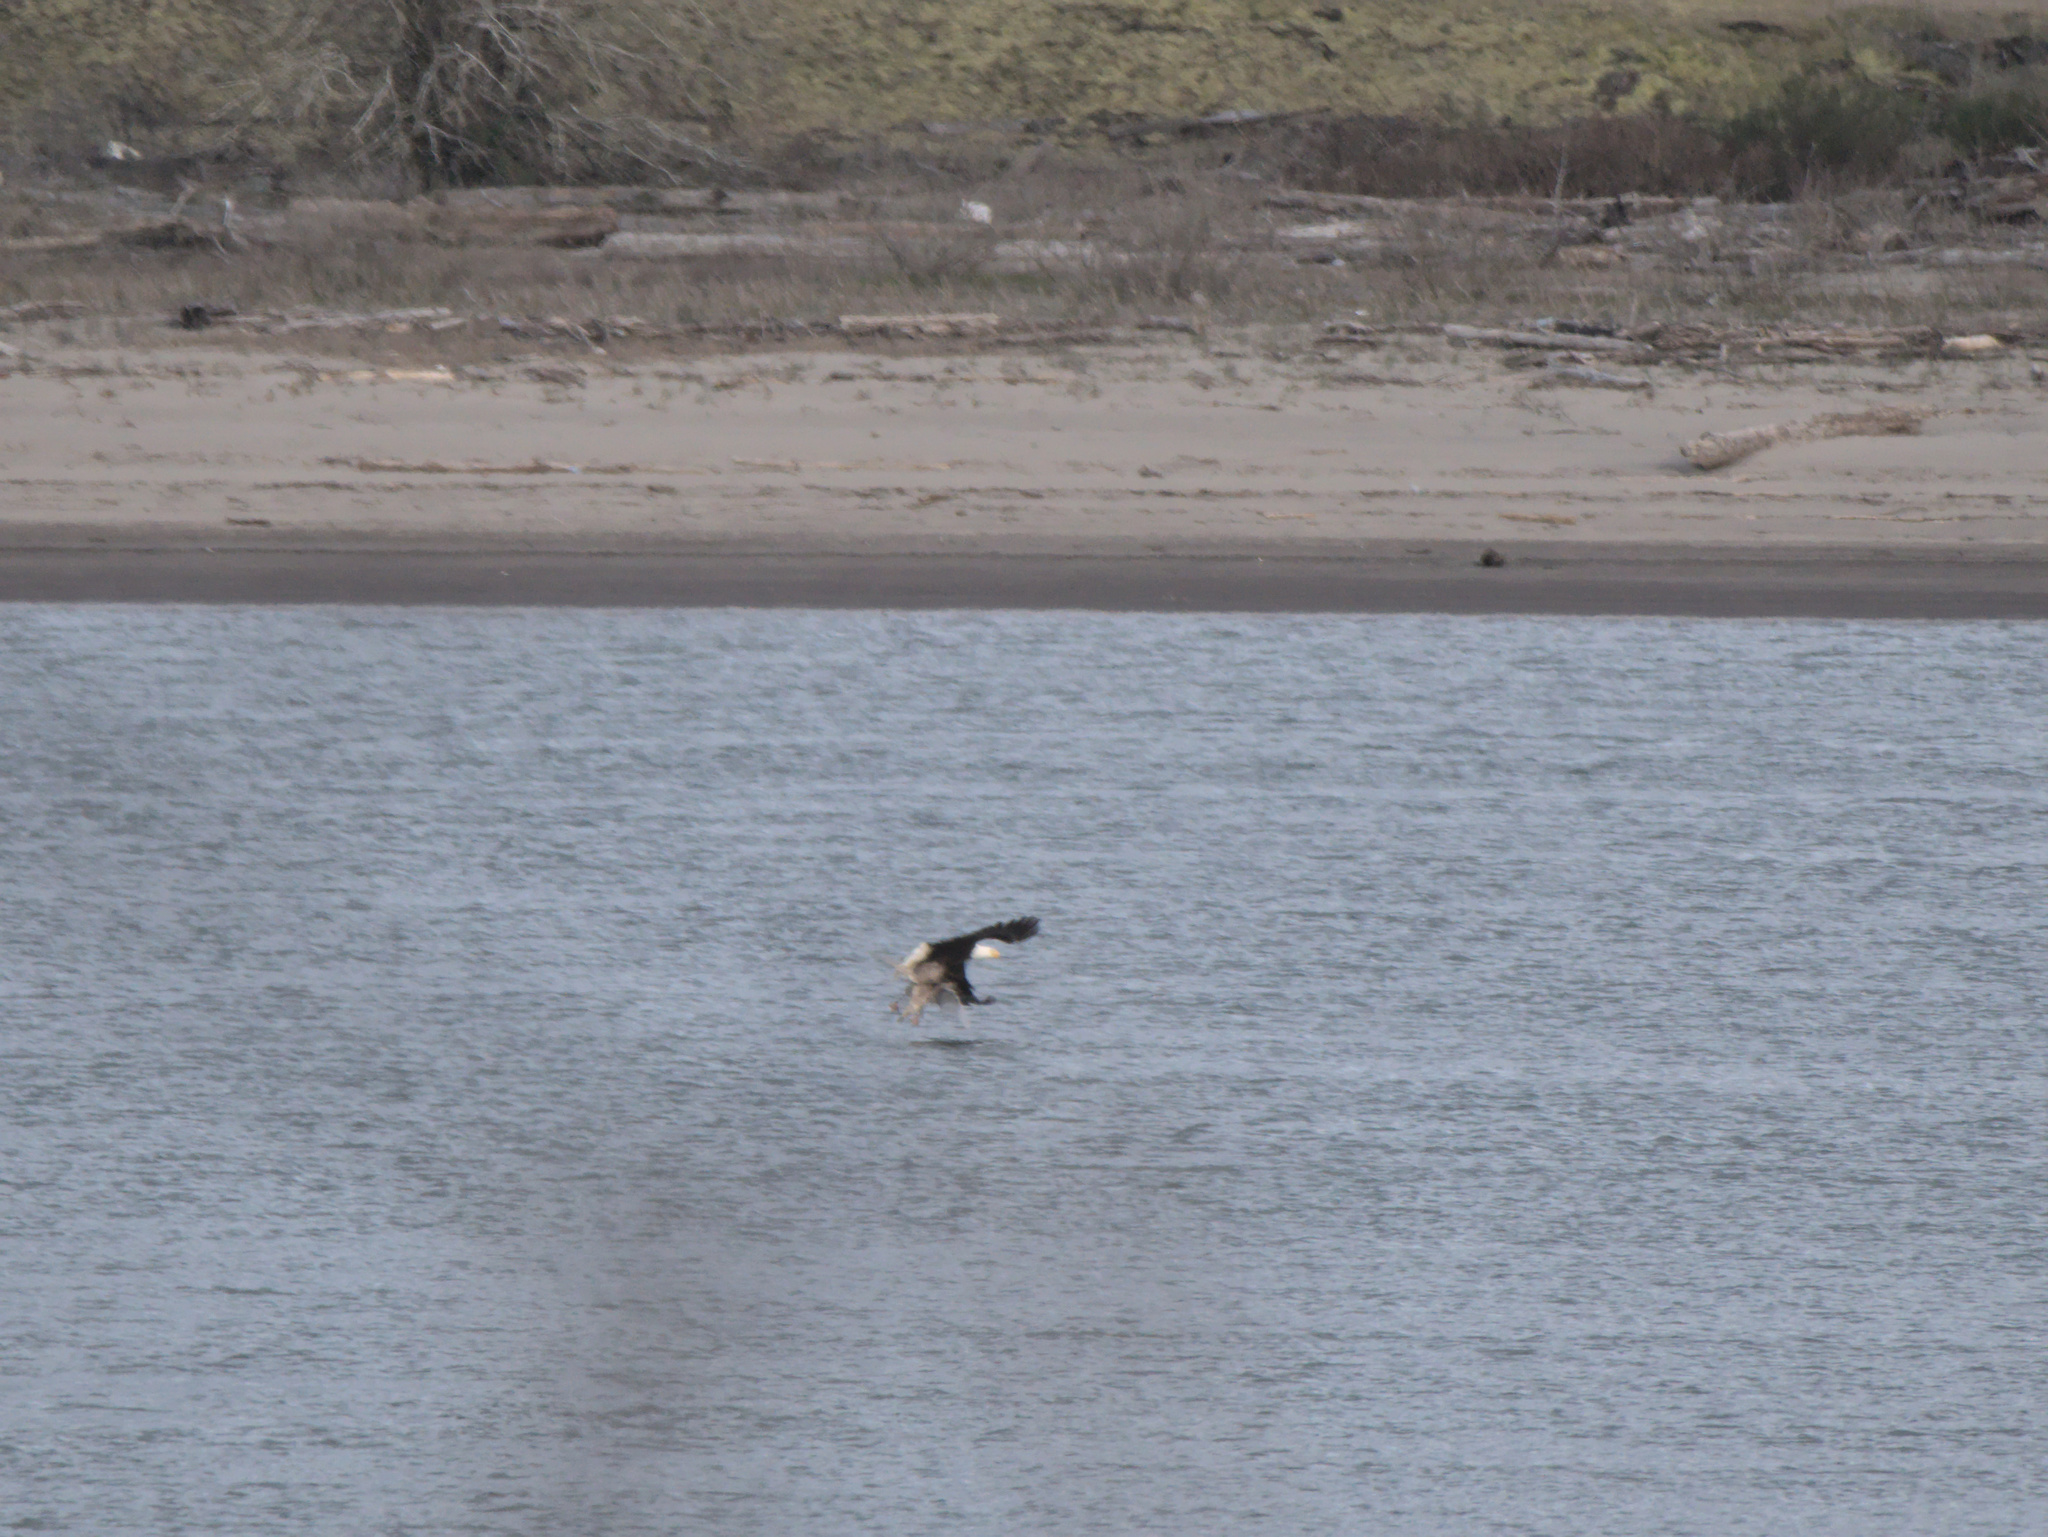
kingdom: Animalia
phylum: Chordata
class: Aves
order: Accipitriformes
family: Accipitridae
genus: Haliaeetus
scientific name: Haliaeetus leucocephalus
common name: Bald eagle
